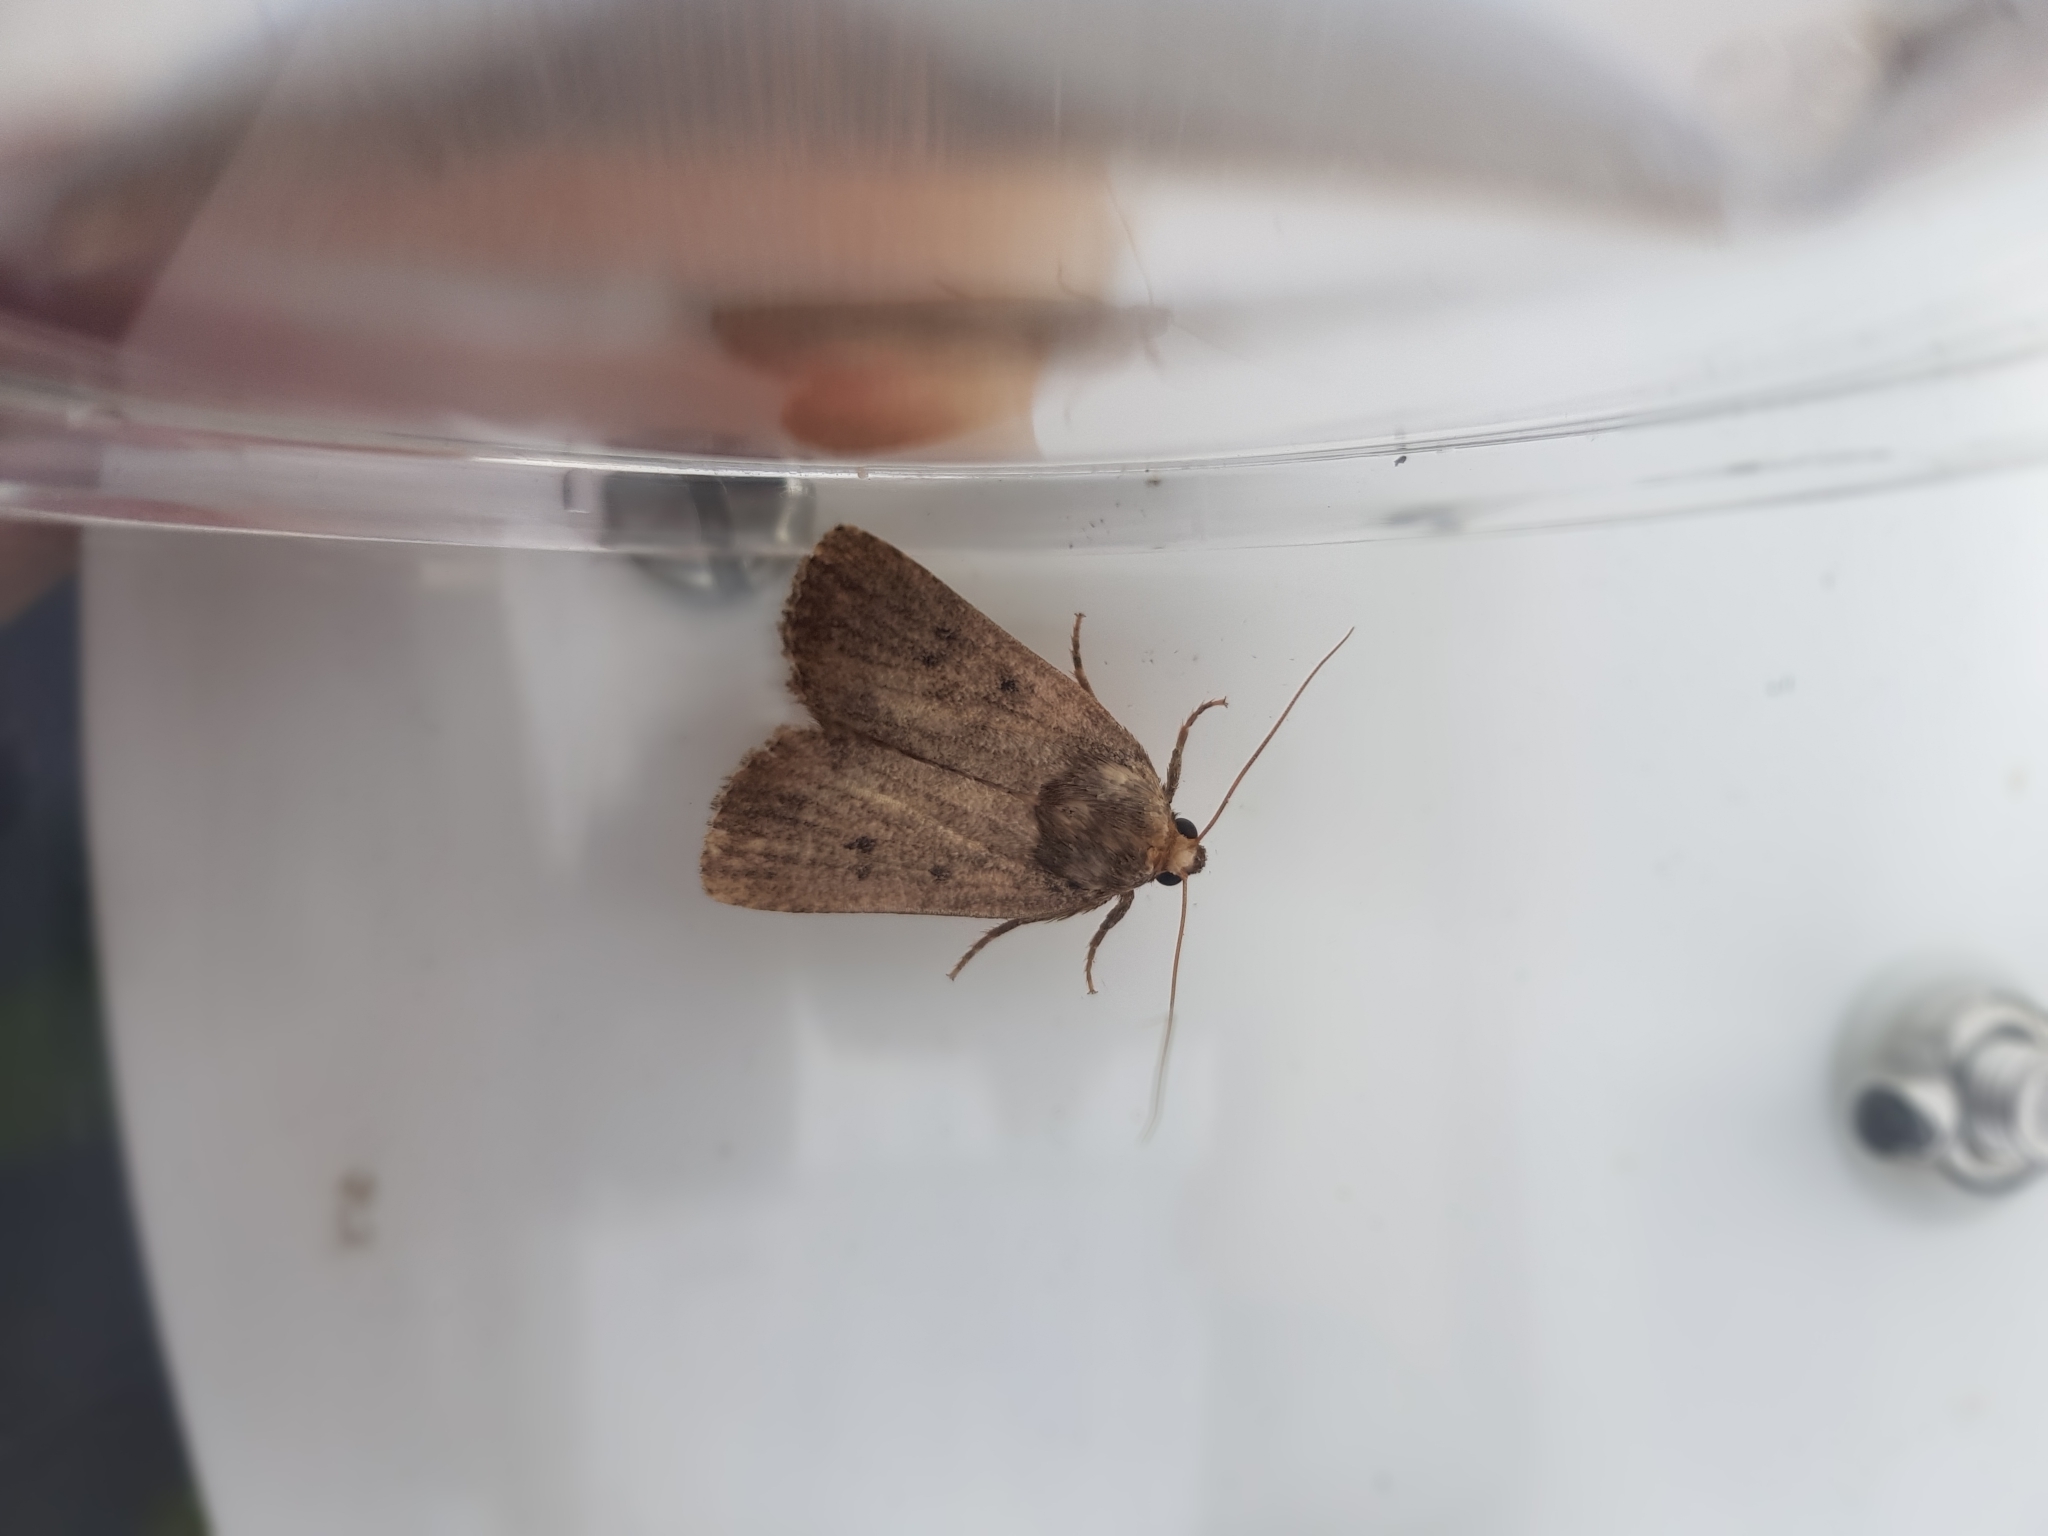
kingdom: Animalia
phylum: Arthropoda
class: Insecta
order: Lepidoptera
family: Noctuidae
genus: Amphipyra
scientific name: Amphipyra tragopoginis
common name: Mouse moth
